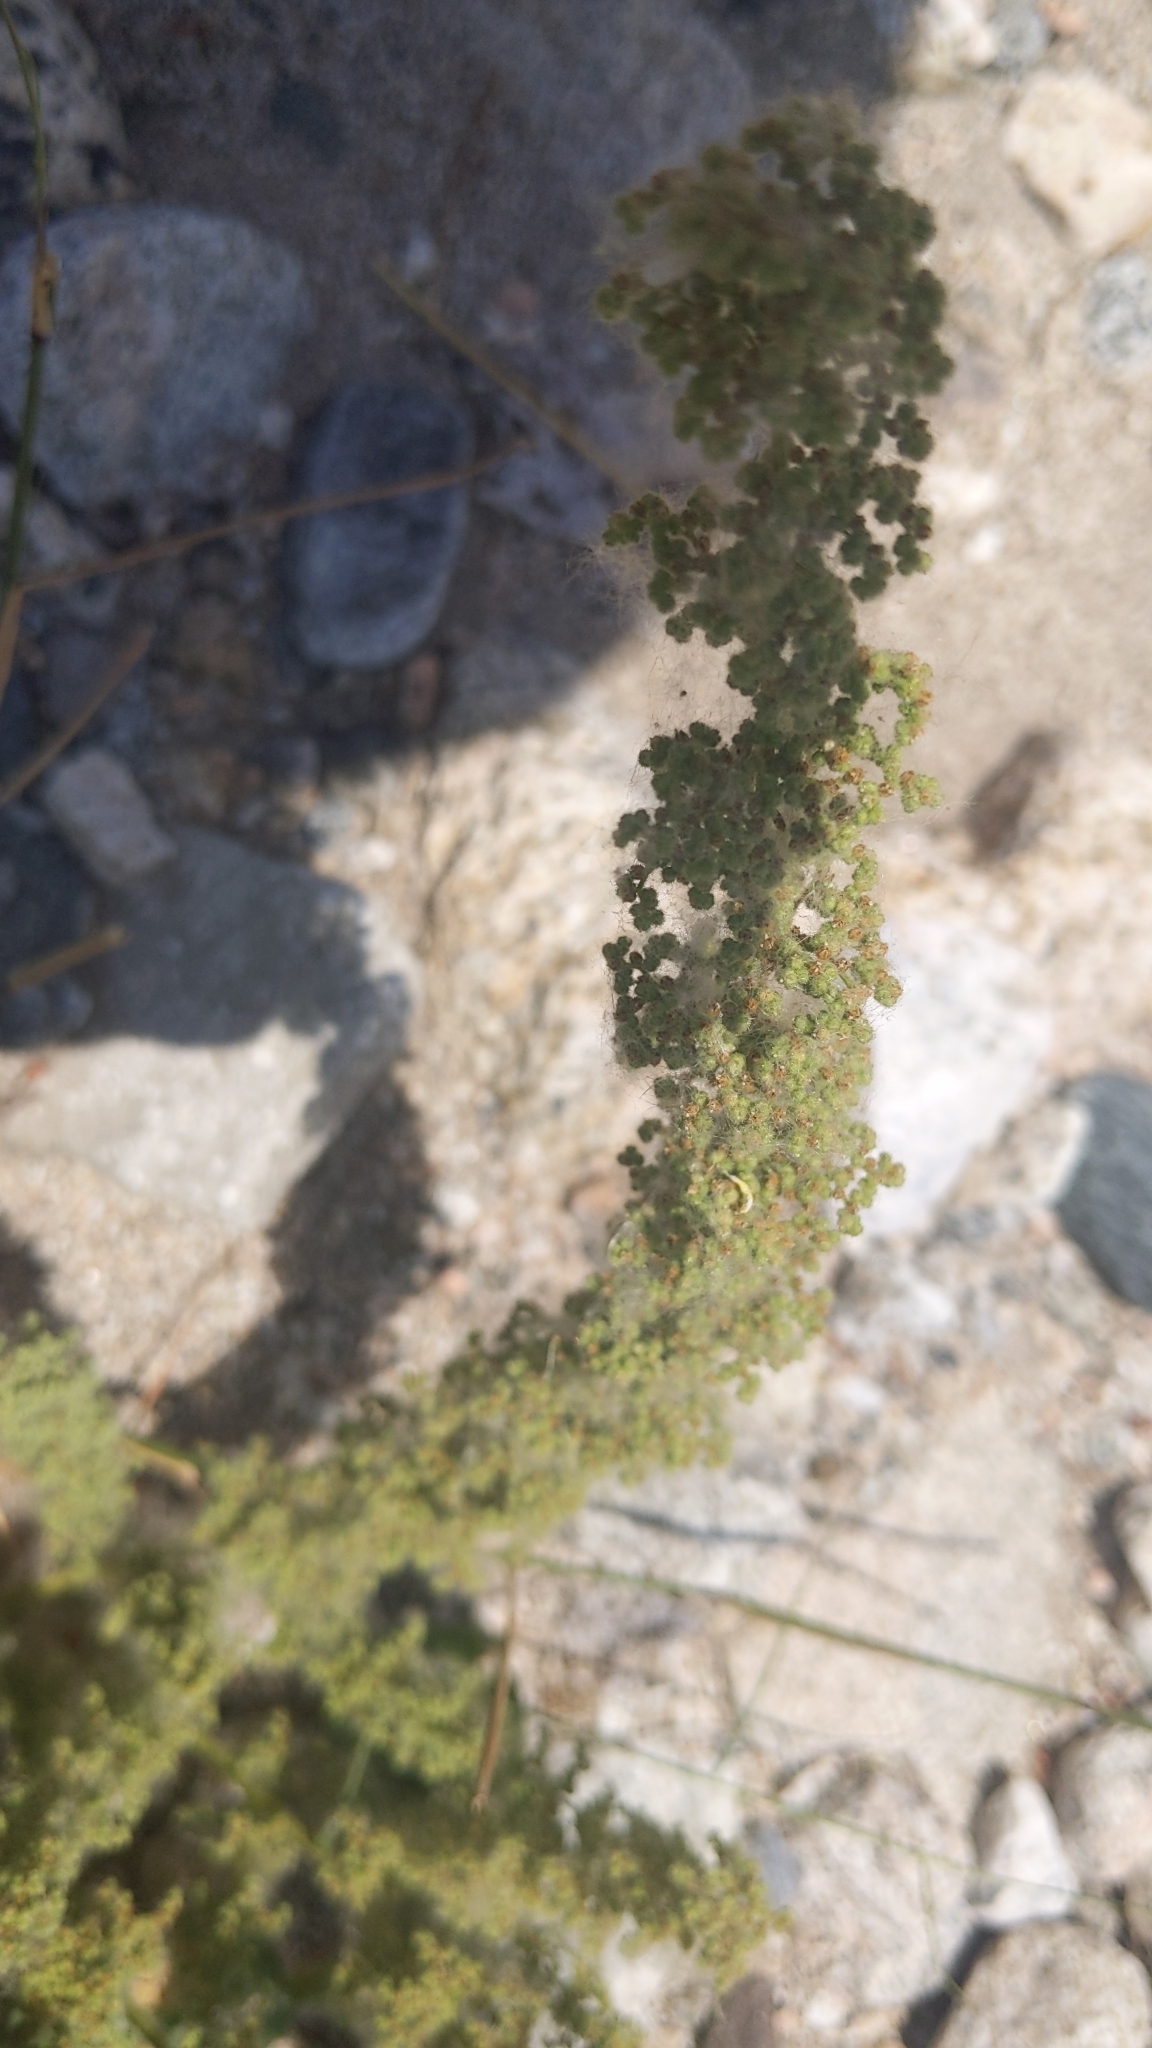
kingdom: Plantae
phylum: Tracheophyta
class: Magnoliopsida
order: Caryophyllales
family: Amaranthaceae
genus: Dysphania
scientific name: Dysphania botrys
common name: Feather-geranium
